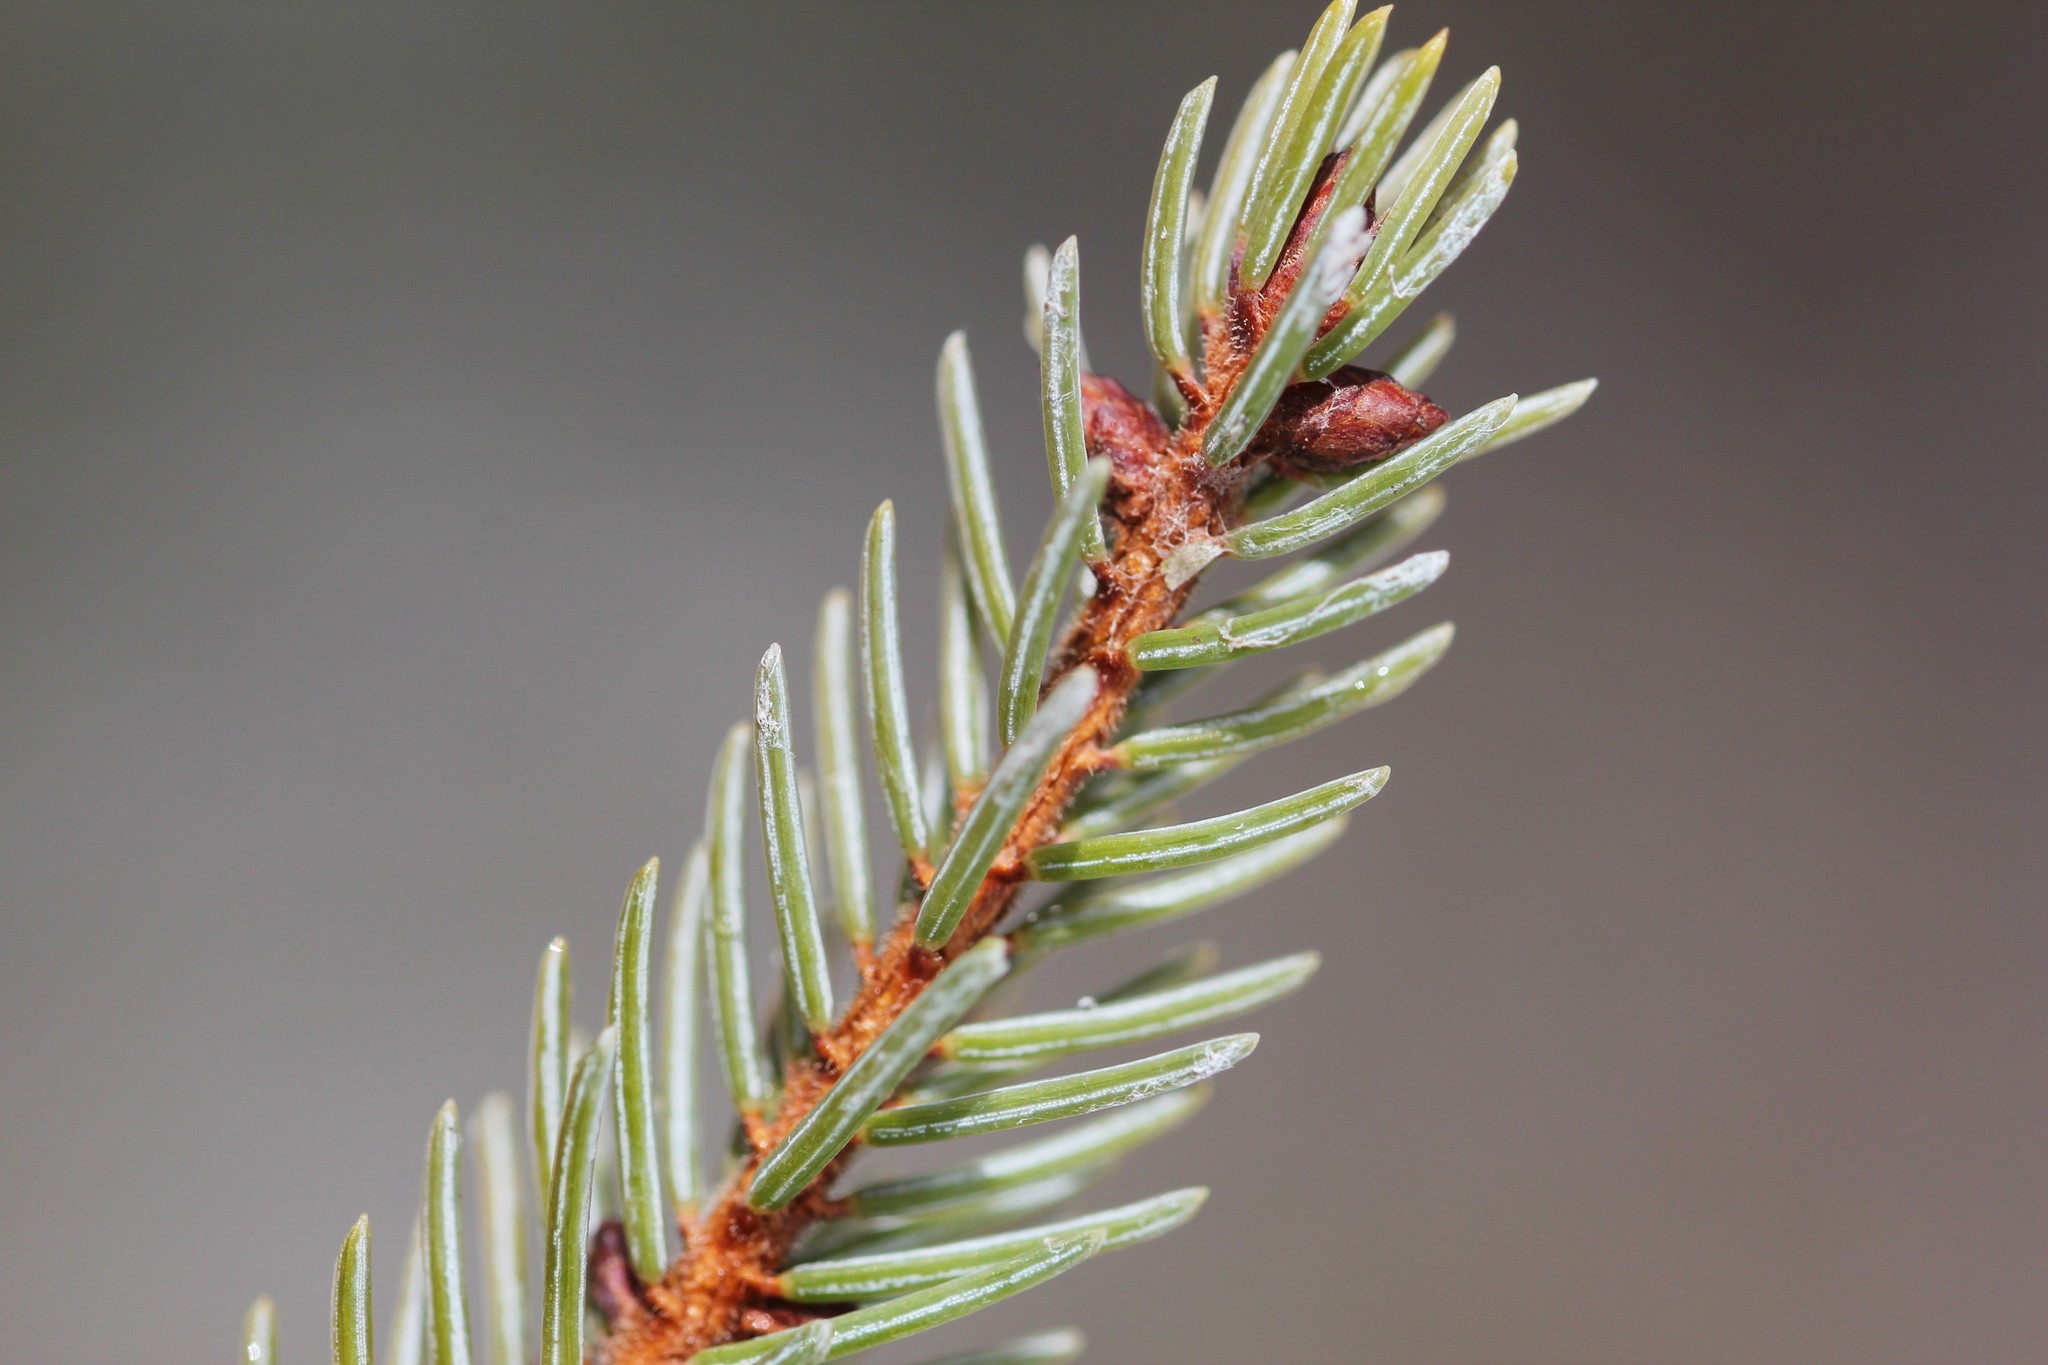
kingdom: Plantae
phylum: Tracheophyta
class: Pinopsida
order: Pinales
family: Pinaceae
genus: Picea
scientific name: Picea mariana
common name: Black spruce
